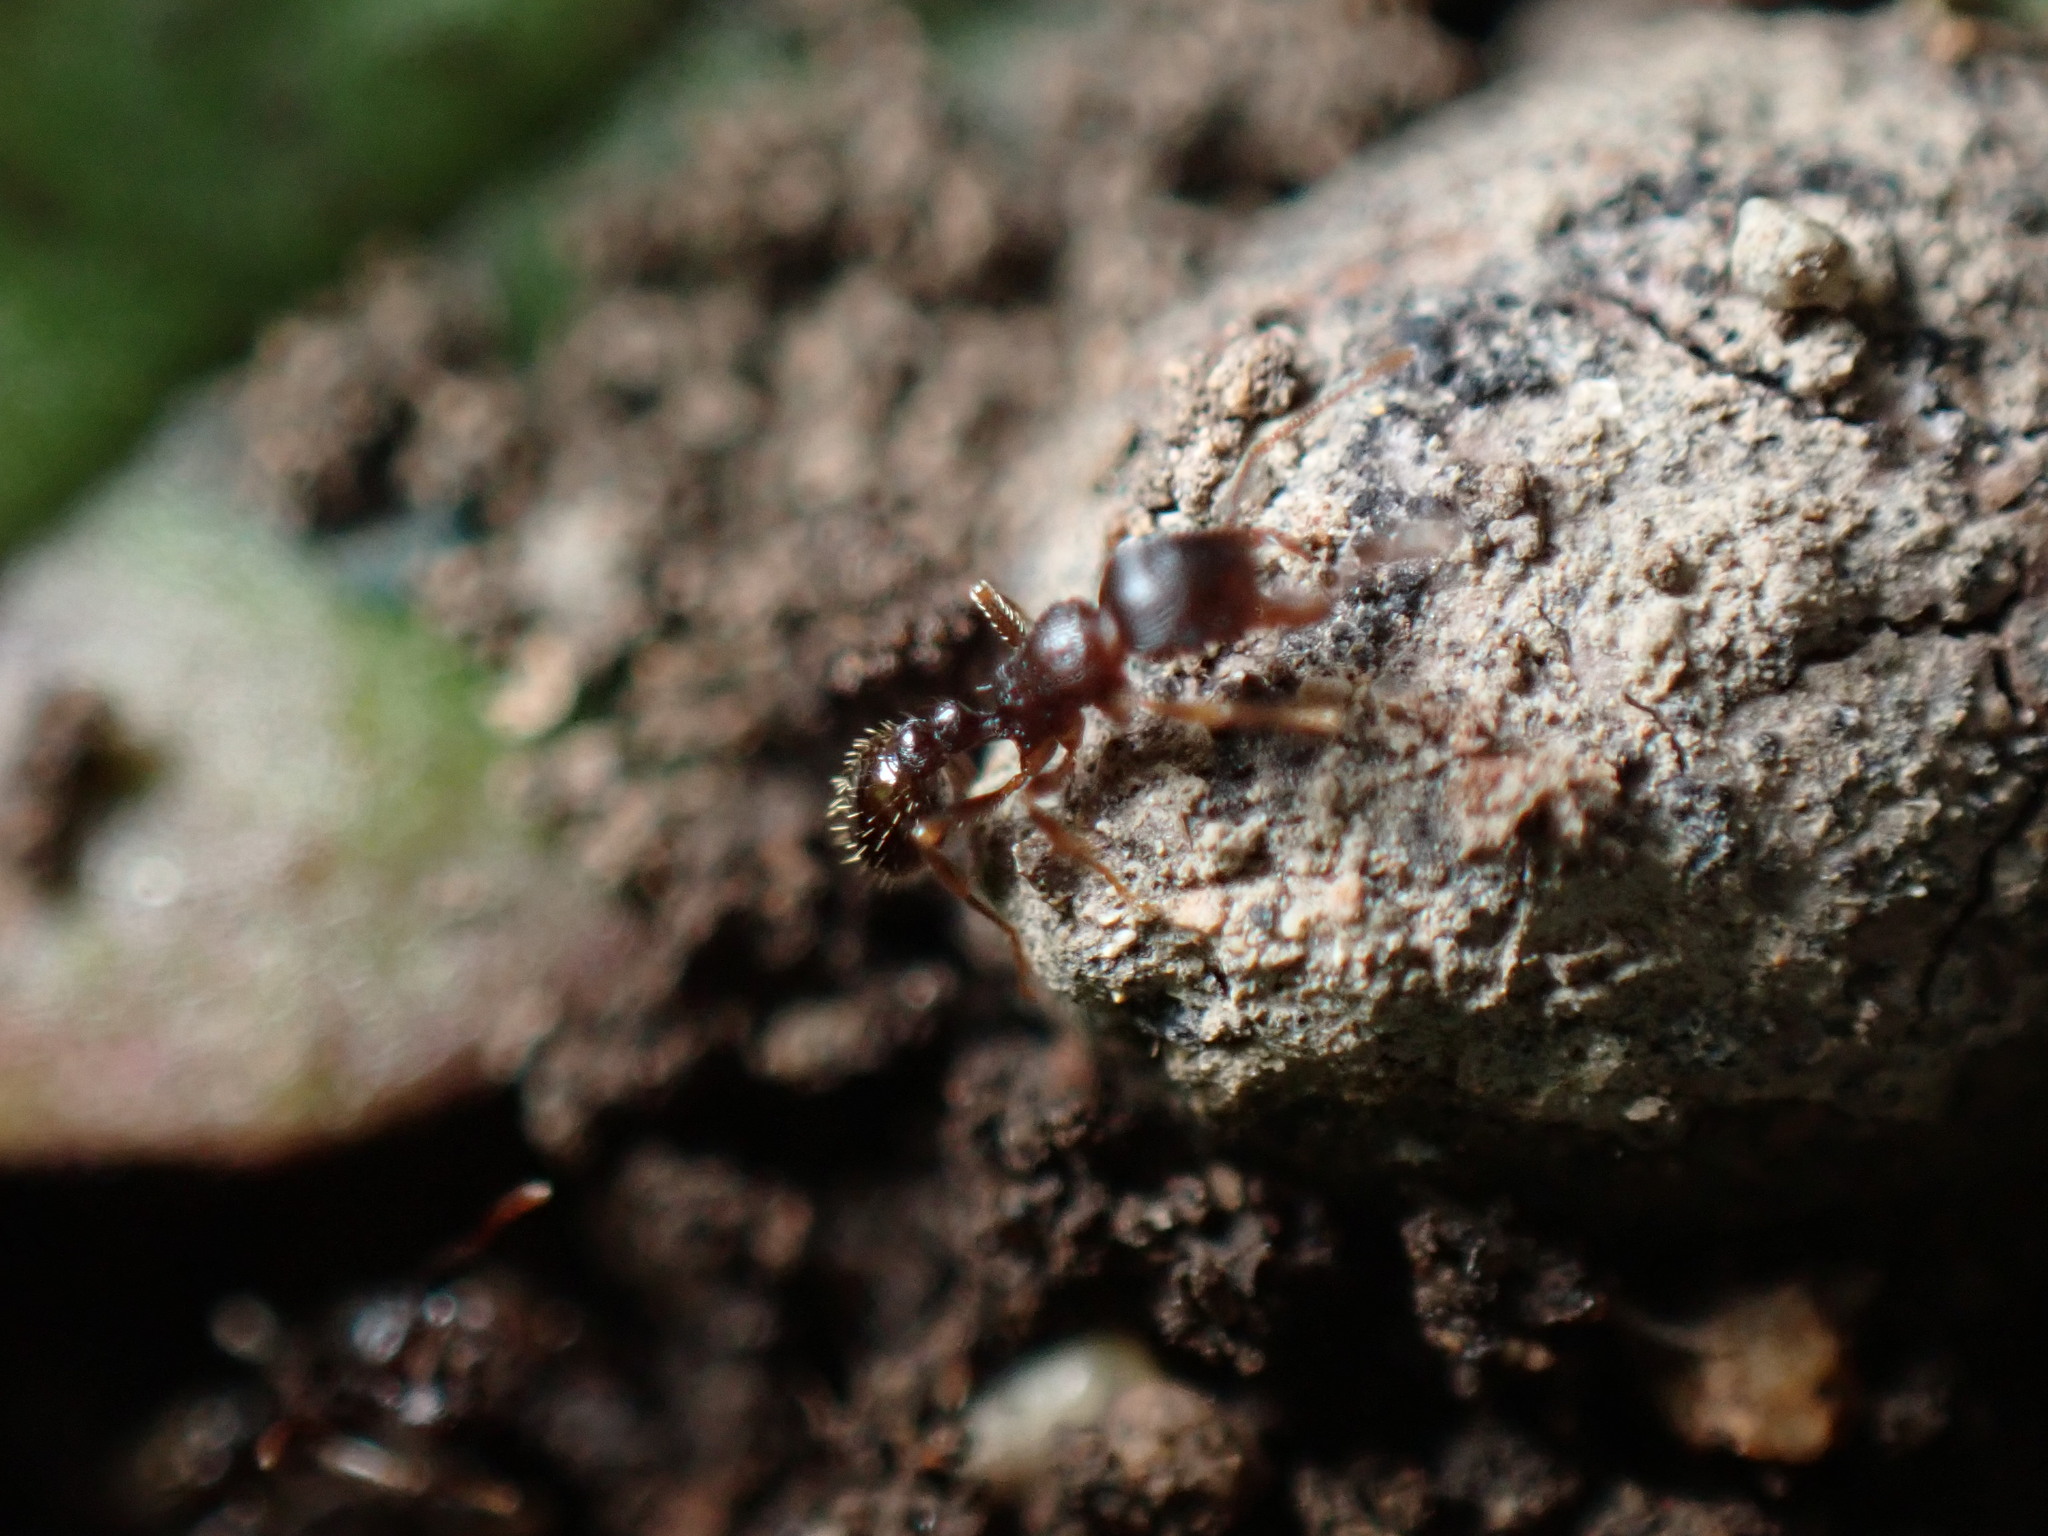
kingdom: Animalia
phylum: Arthropoda
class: Insecta
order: Hymenoptera
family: Formicidae
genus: Tetramorium
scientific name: Tetramorium tsushimae
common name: Ant
